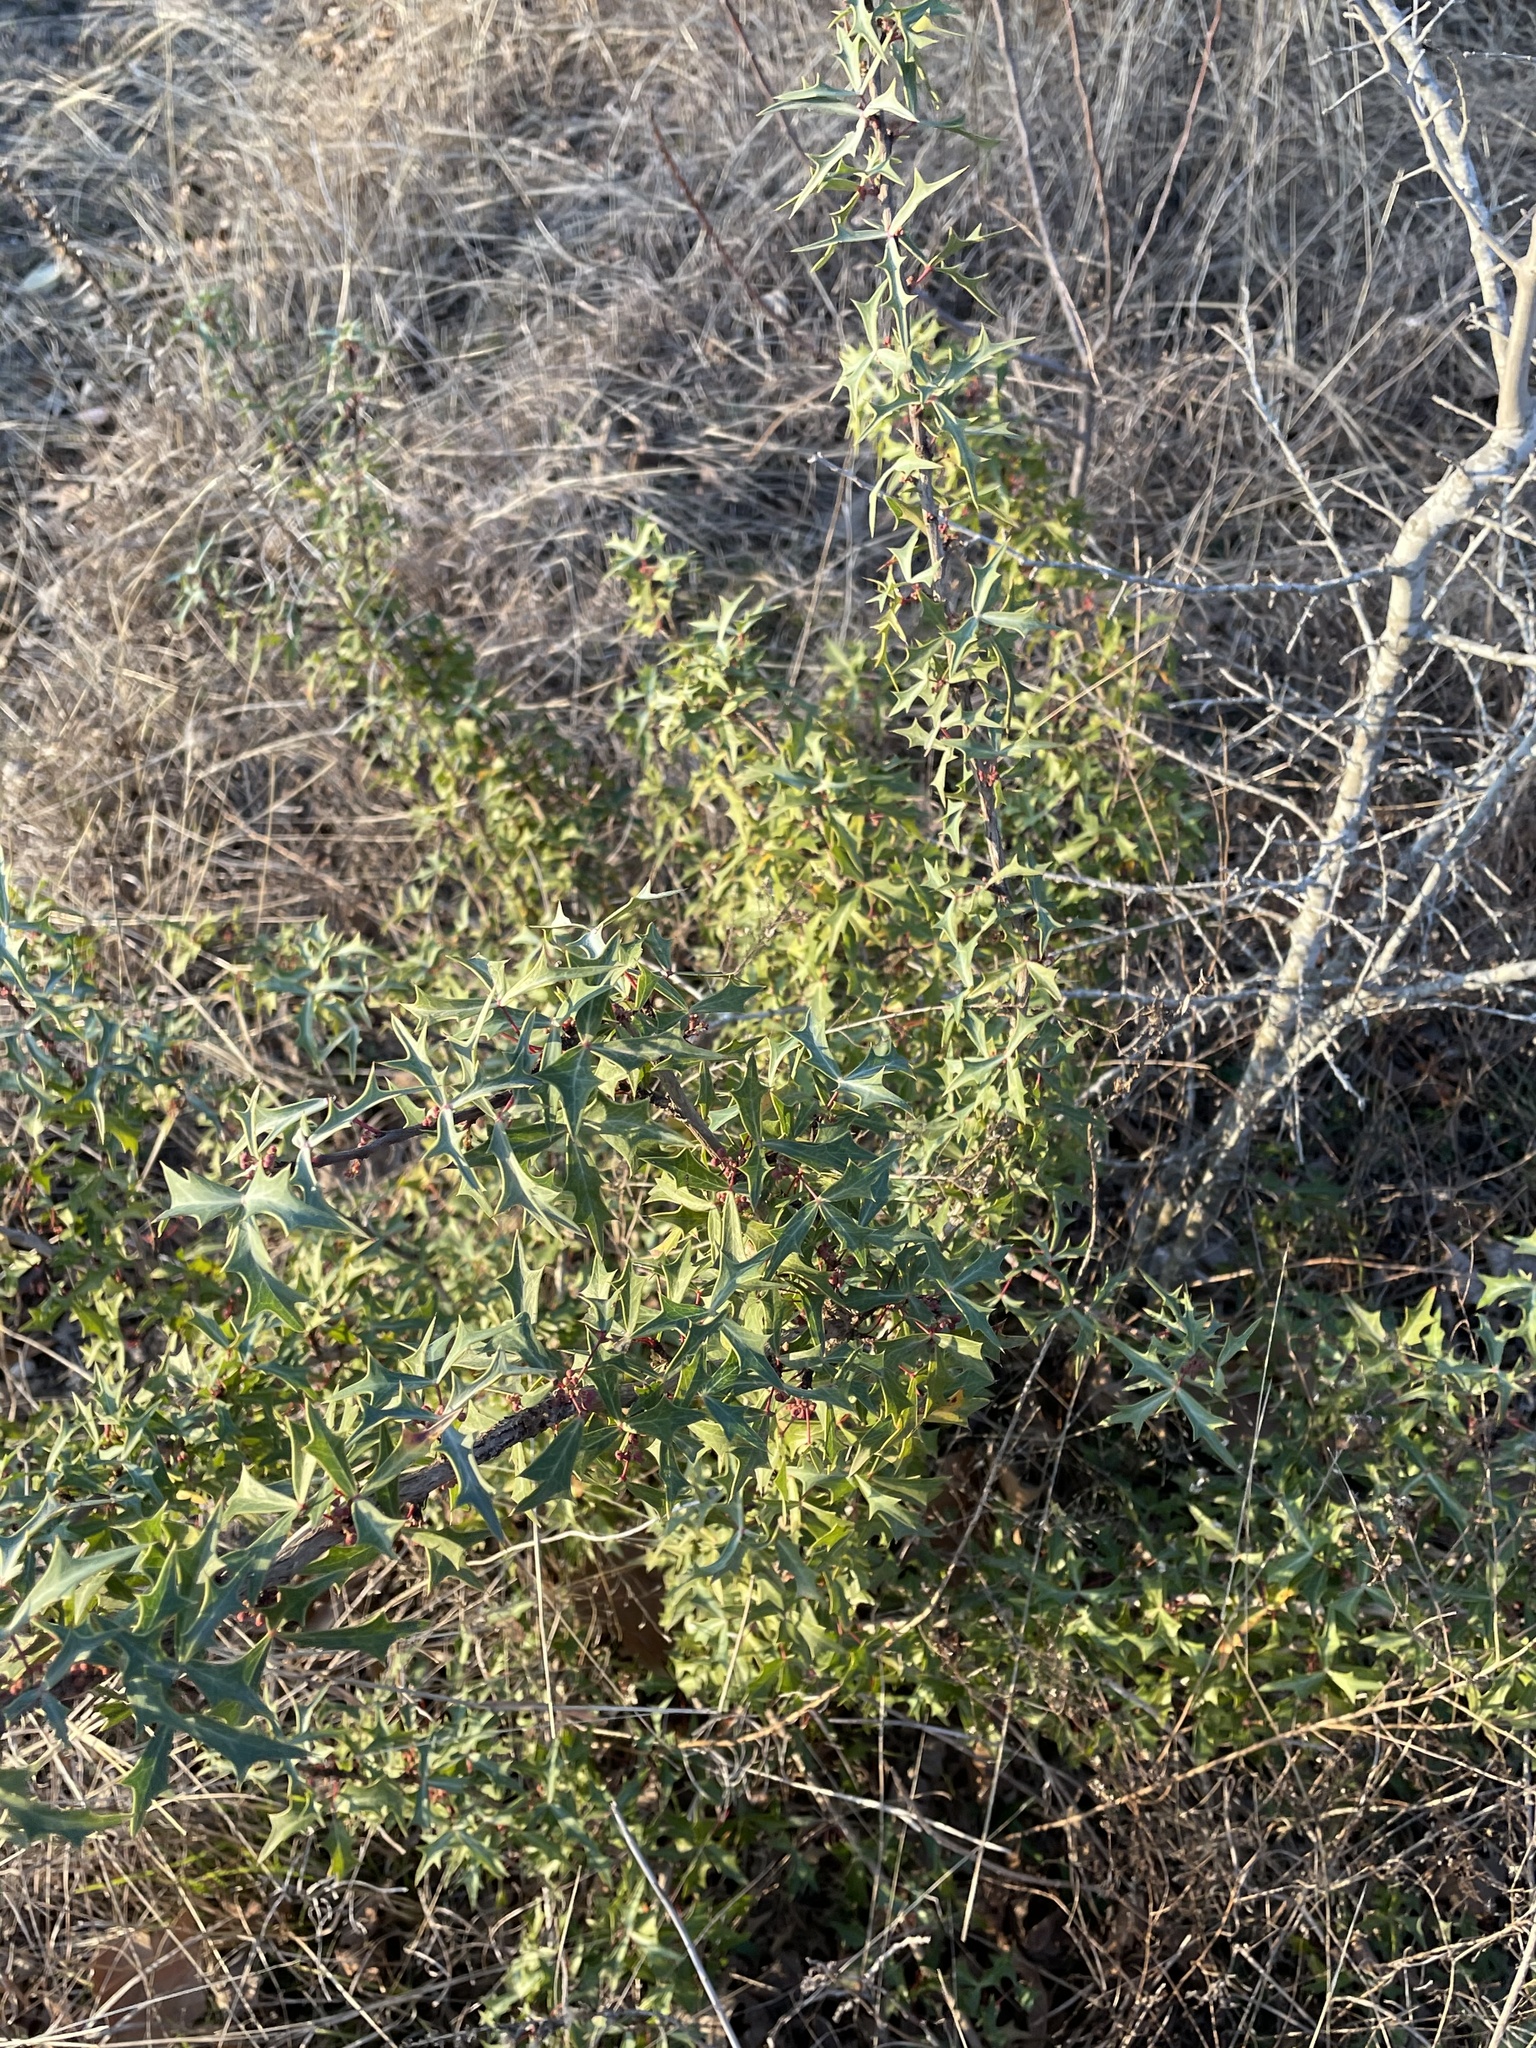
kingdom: Plantae
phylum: Tracheophyta
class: Magnoliopsida
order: Ranunculales
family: Berberidaceae
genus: Alloberberis
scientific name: Alloberberis trifoliolata
